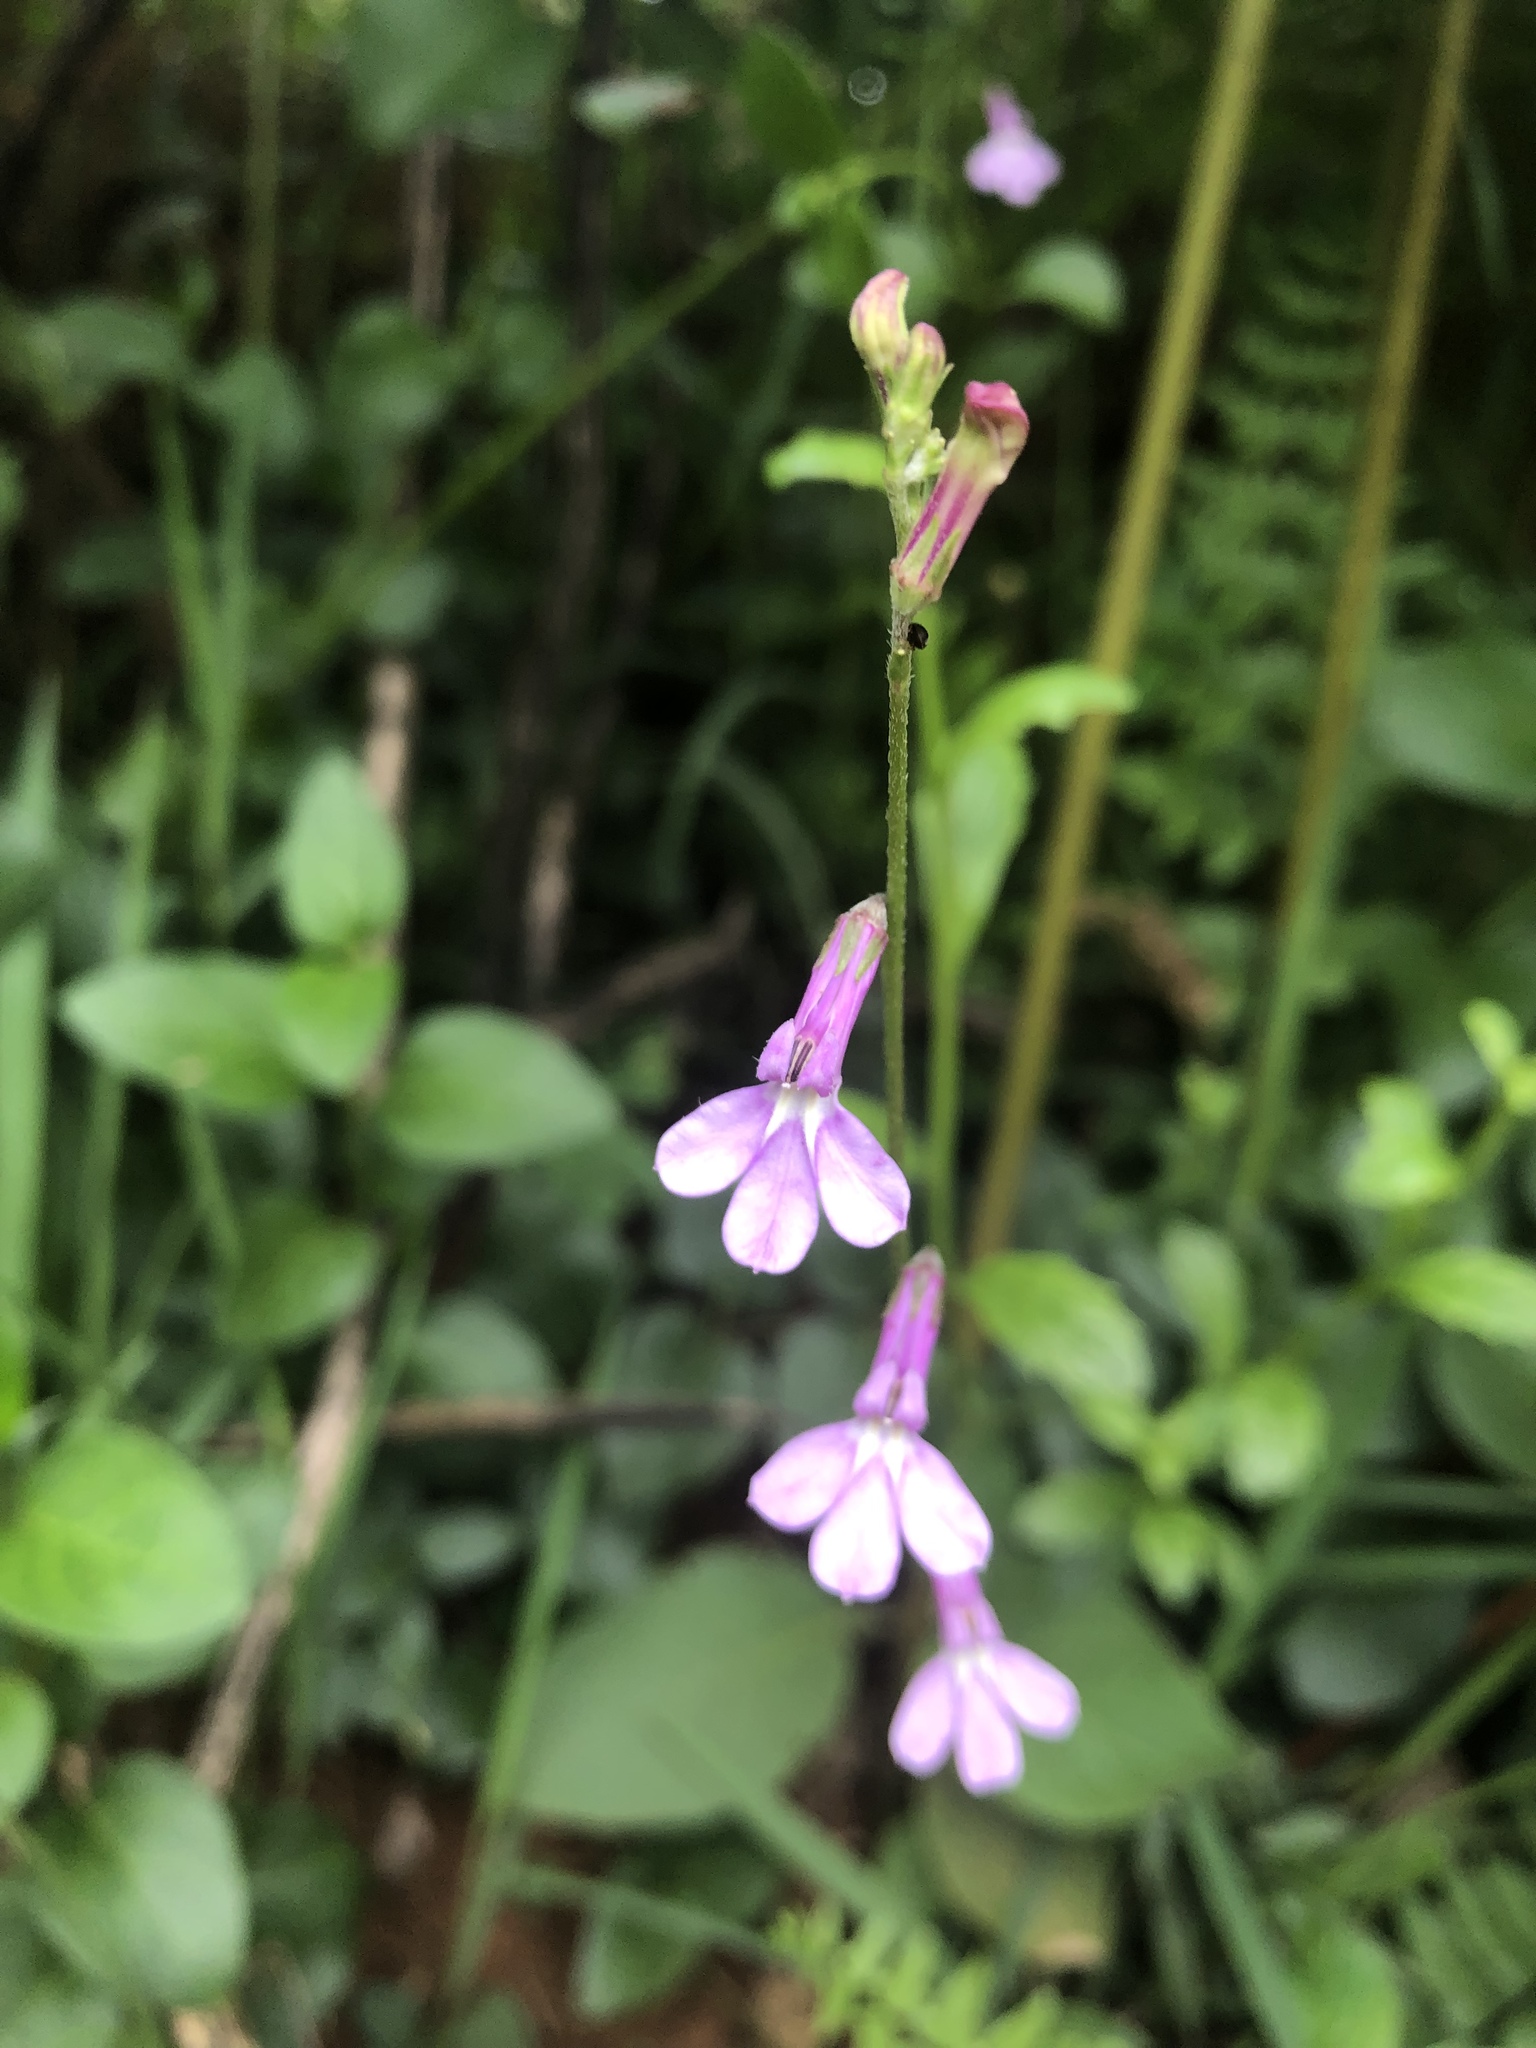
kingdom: Plantae
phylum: Tracheophyta
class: Magnoliopsida
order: Asterales
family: Campanulaceae
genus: Lobelia
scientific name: Lobelia holstii
